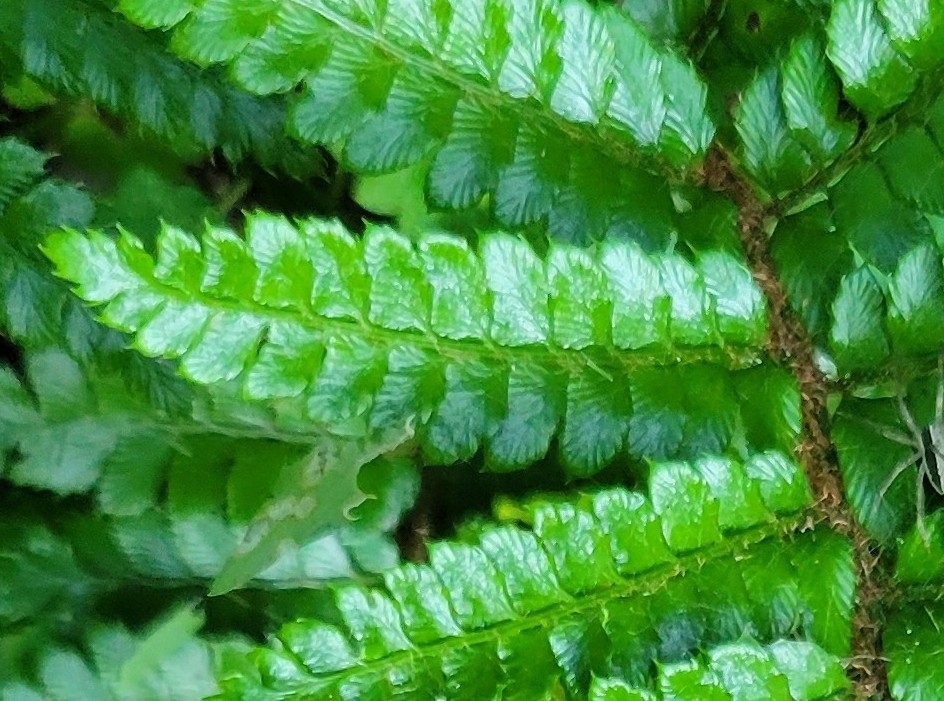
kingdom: Plantae
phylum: Tracheophyta
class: Polypodiopsida
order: Polypodiales
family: Dryopteridaceae
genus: Polystichum
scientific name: Polystichum luctuosum
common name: Korean rockfern
